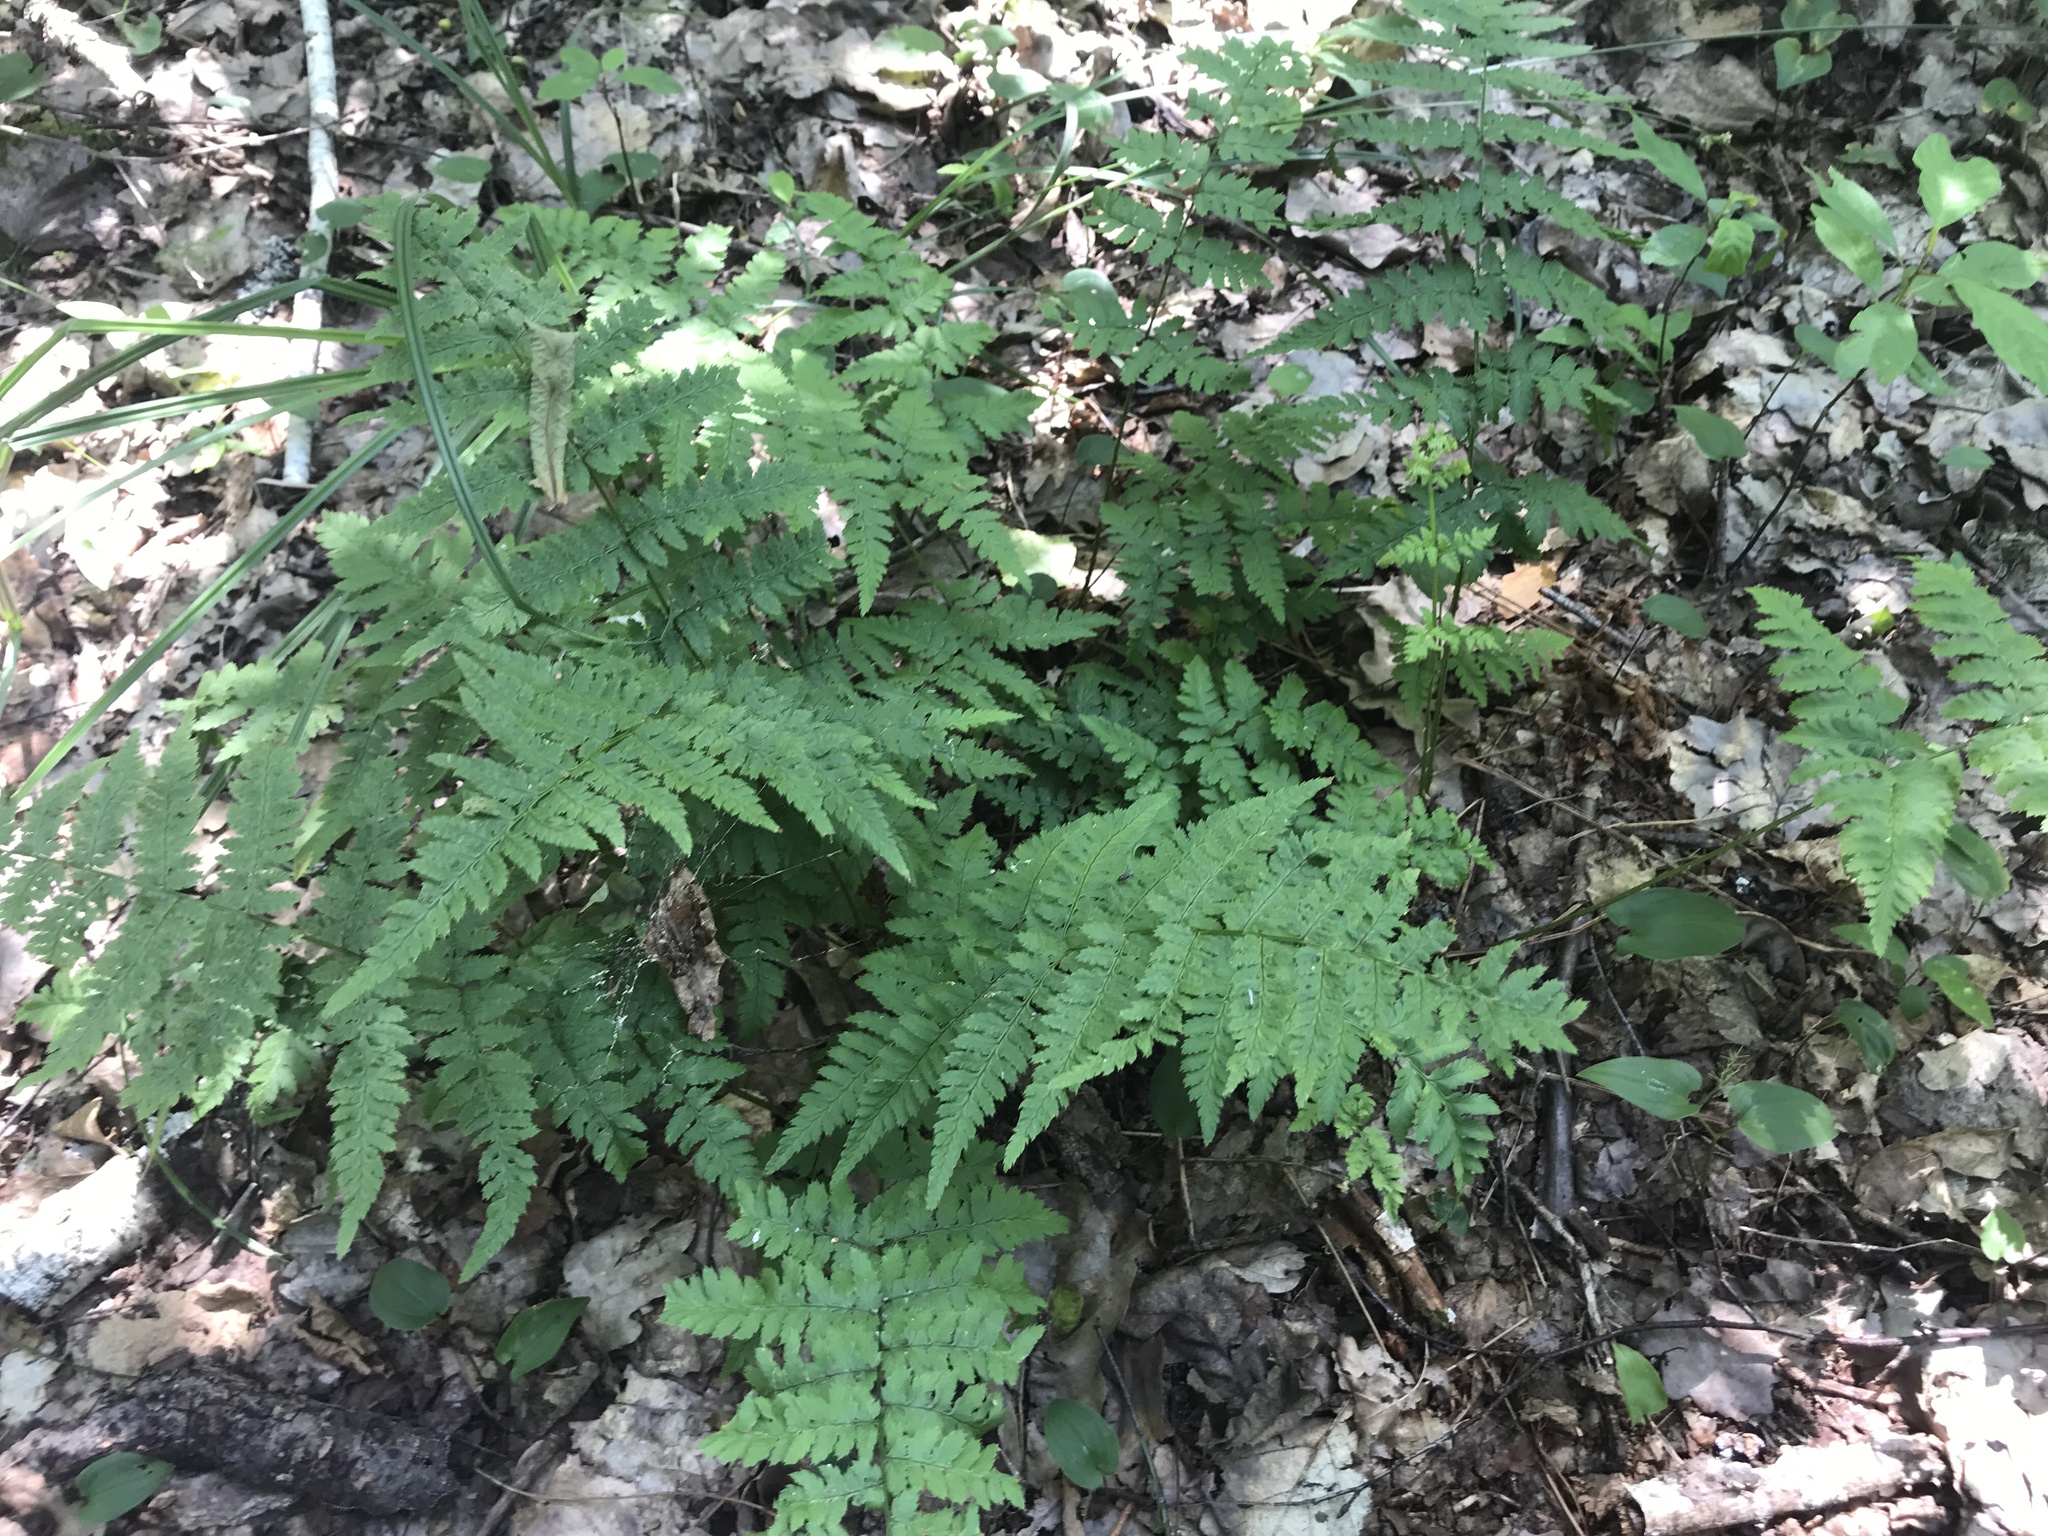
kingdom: Plantae
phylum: Tracheophyta
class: Polypodiopsida
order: Polypodiales
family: Dryopteridaceae
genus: Dryopteris
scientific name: Dryopteris carthusiana
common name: Narrow buckler-fern
